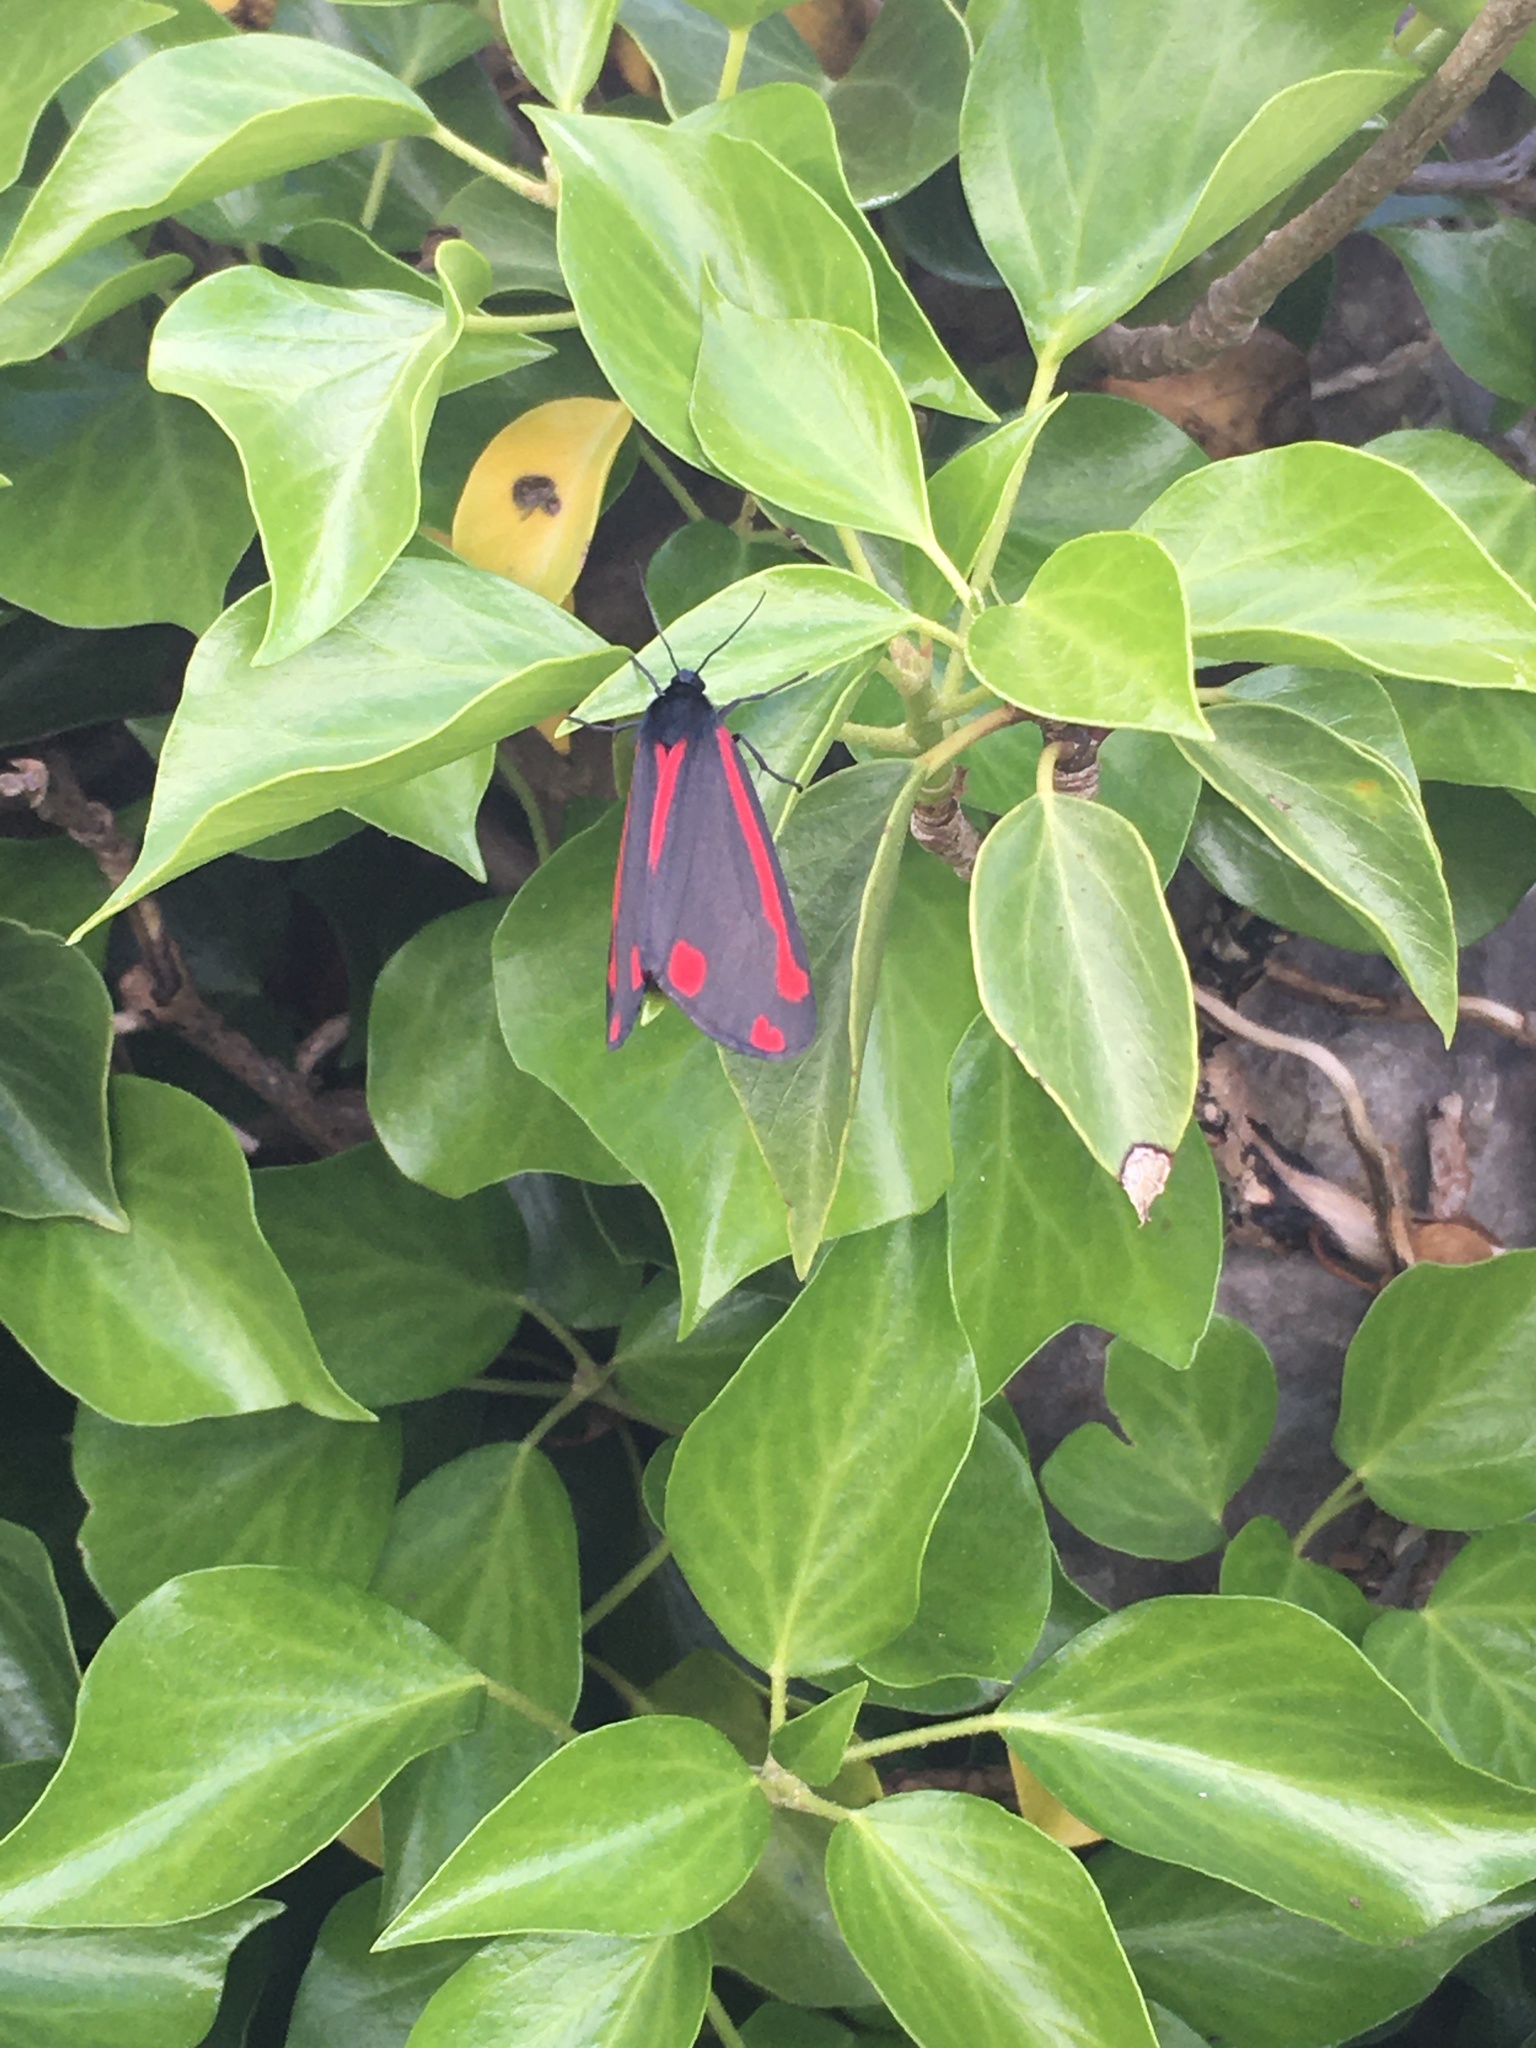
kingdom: Animalia
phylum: Arthropoda
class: Insecta
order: Lepidoptera
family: Erebidae
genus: Tyria
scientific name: Tyria jacobaeae
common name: Cinnabar
